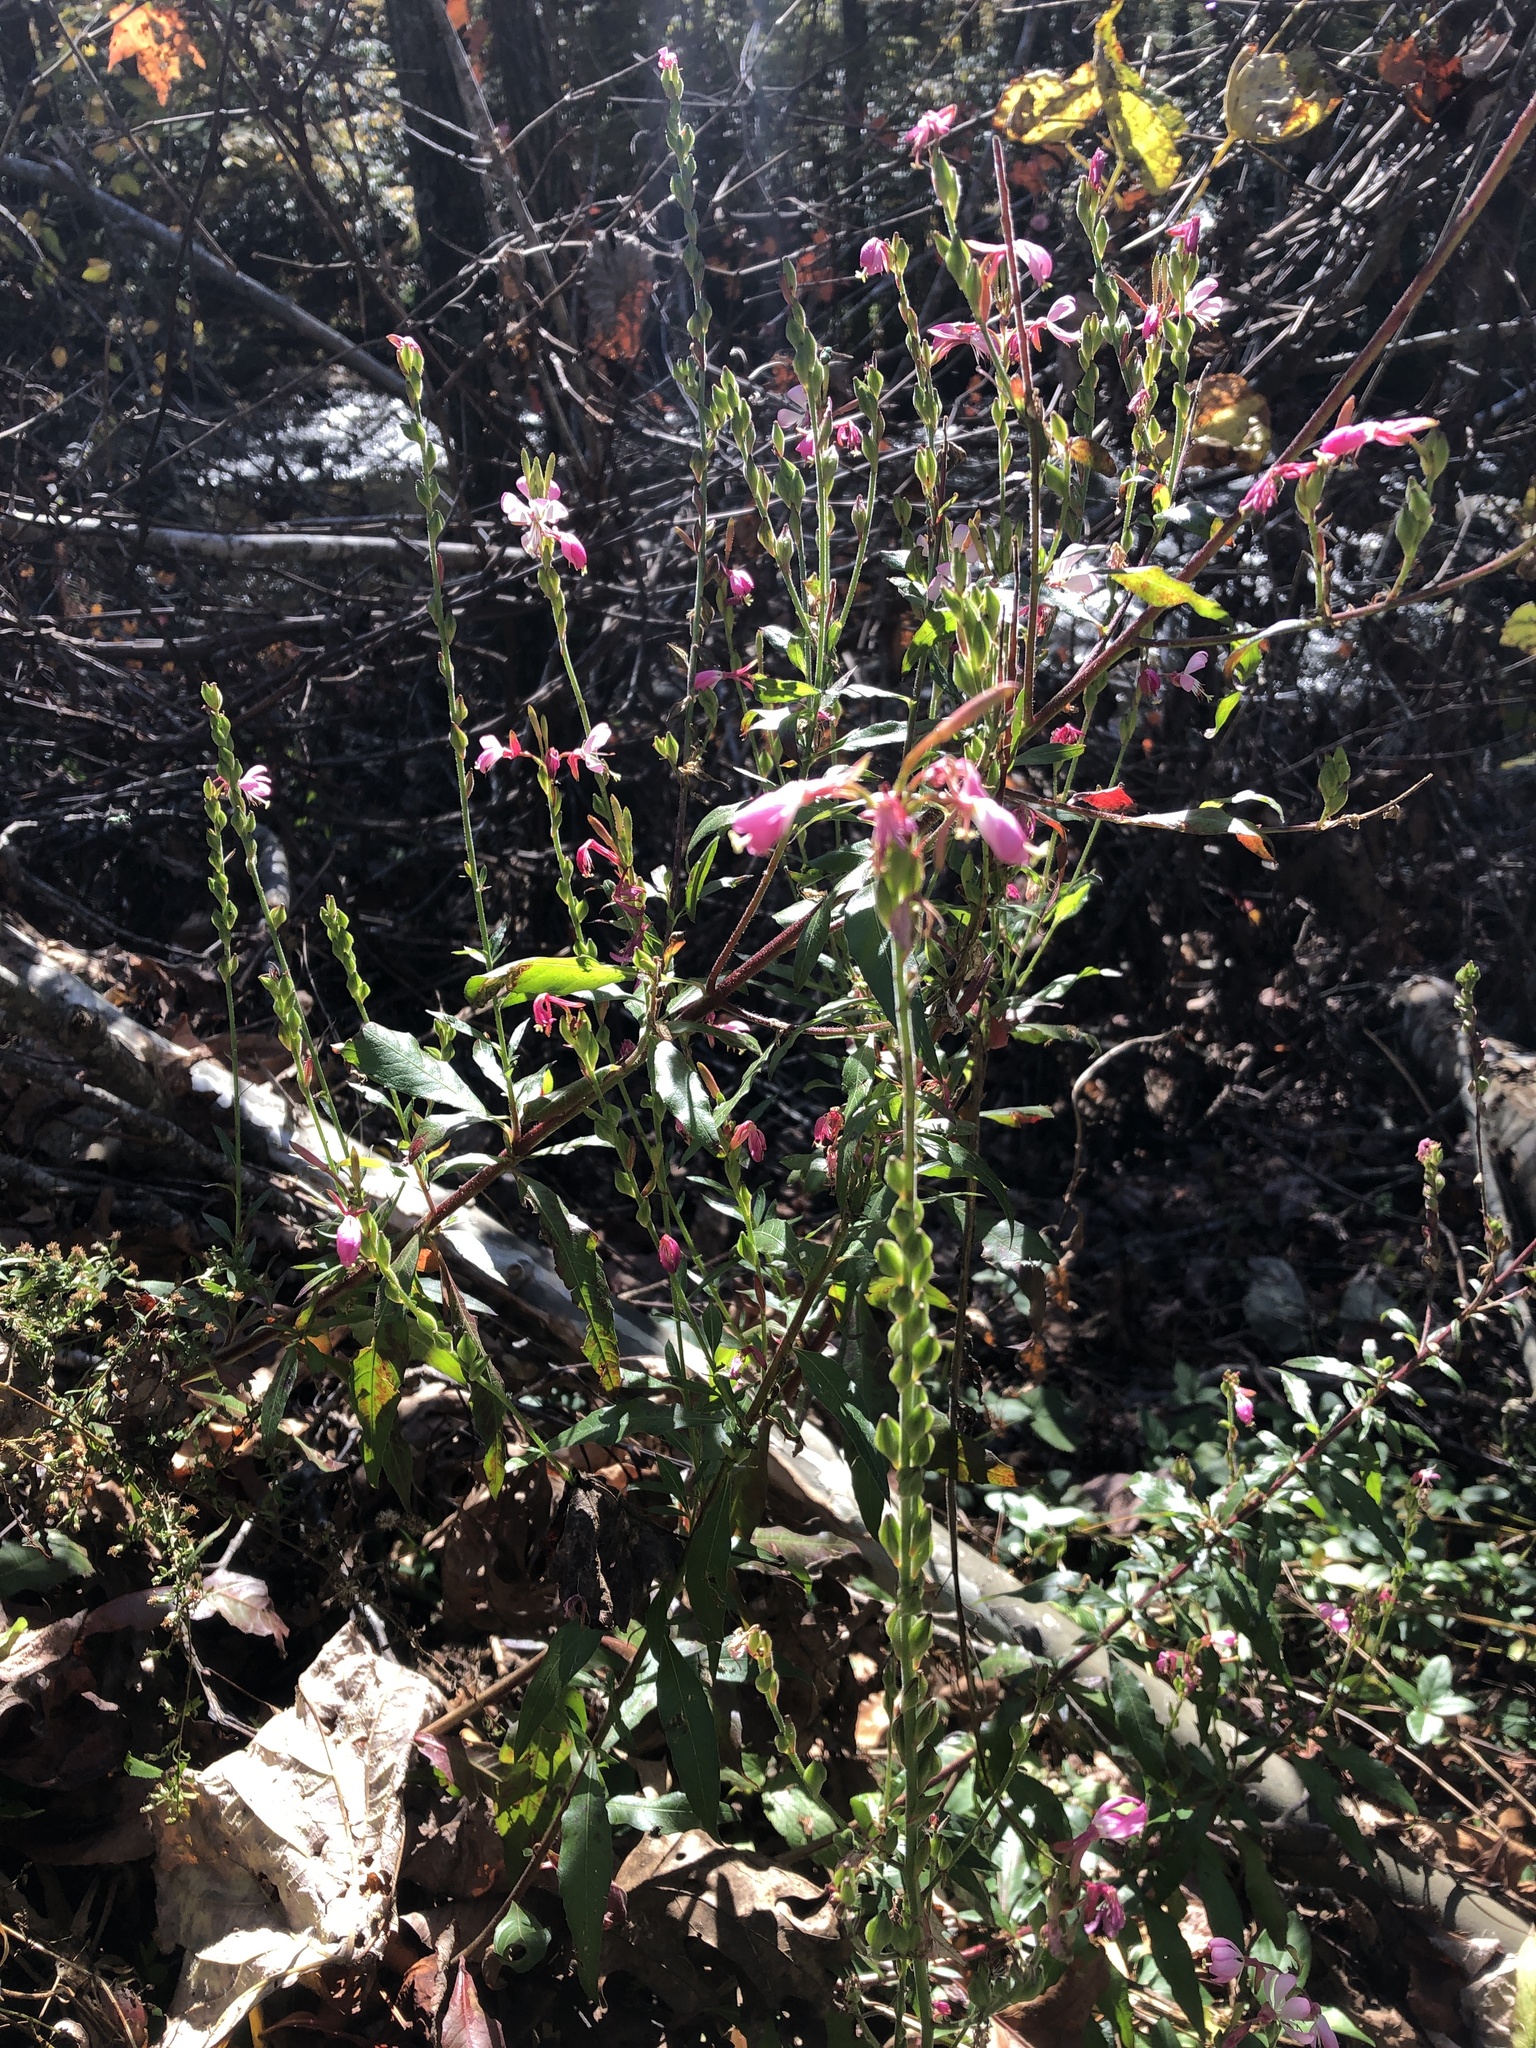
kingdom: Plantae
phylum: Tracheophyta
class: Magnoliopsida
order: Myrtales
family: Onagraceae
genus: Oenothera
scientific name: Oenothera gaura
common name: Biennial beeblossom
